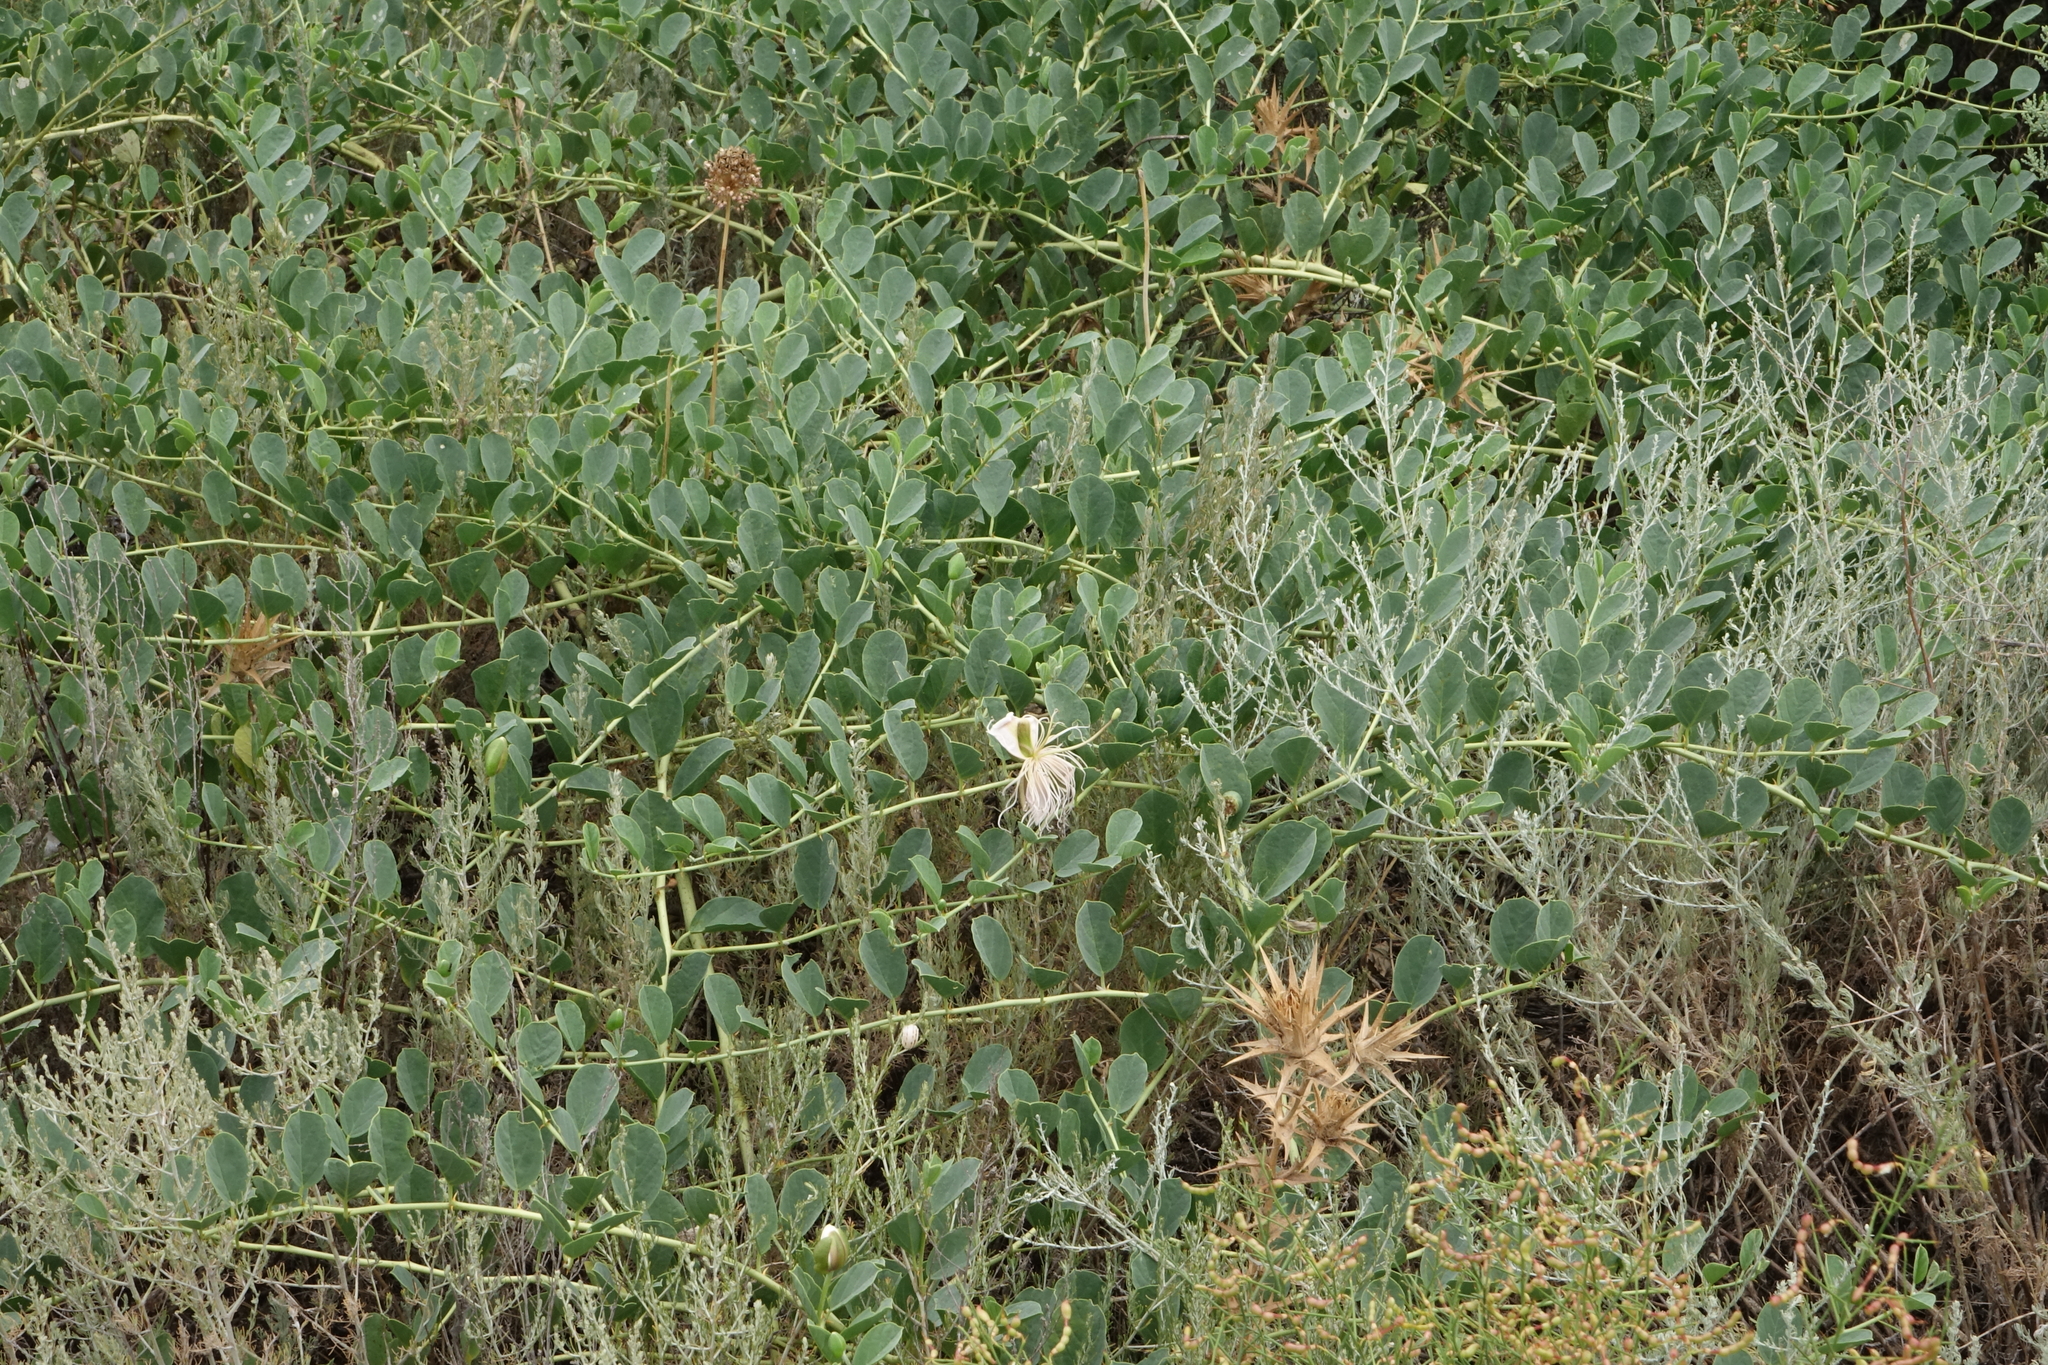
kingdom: Plantae
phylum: Tracheophyta
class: Magnoliopsida
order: Brassicales
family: Capparaceae
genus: Capparis
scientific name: Capparis spinosa
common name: Caper
